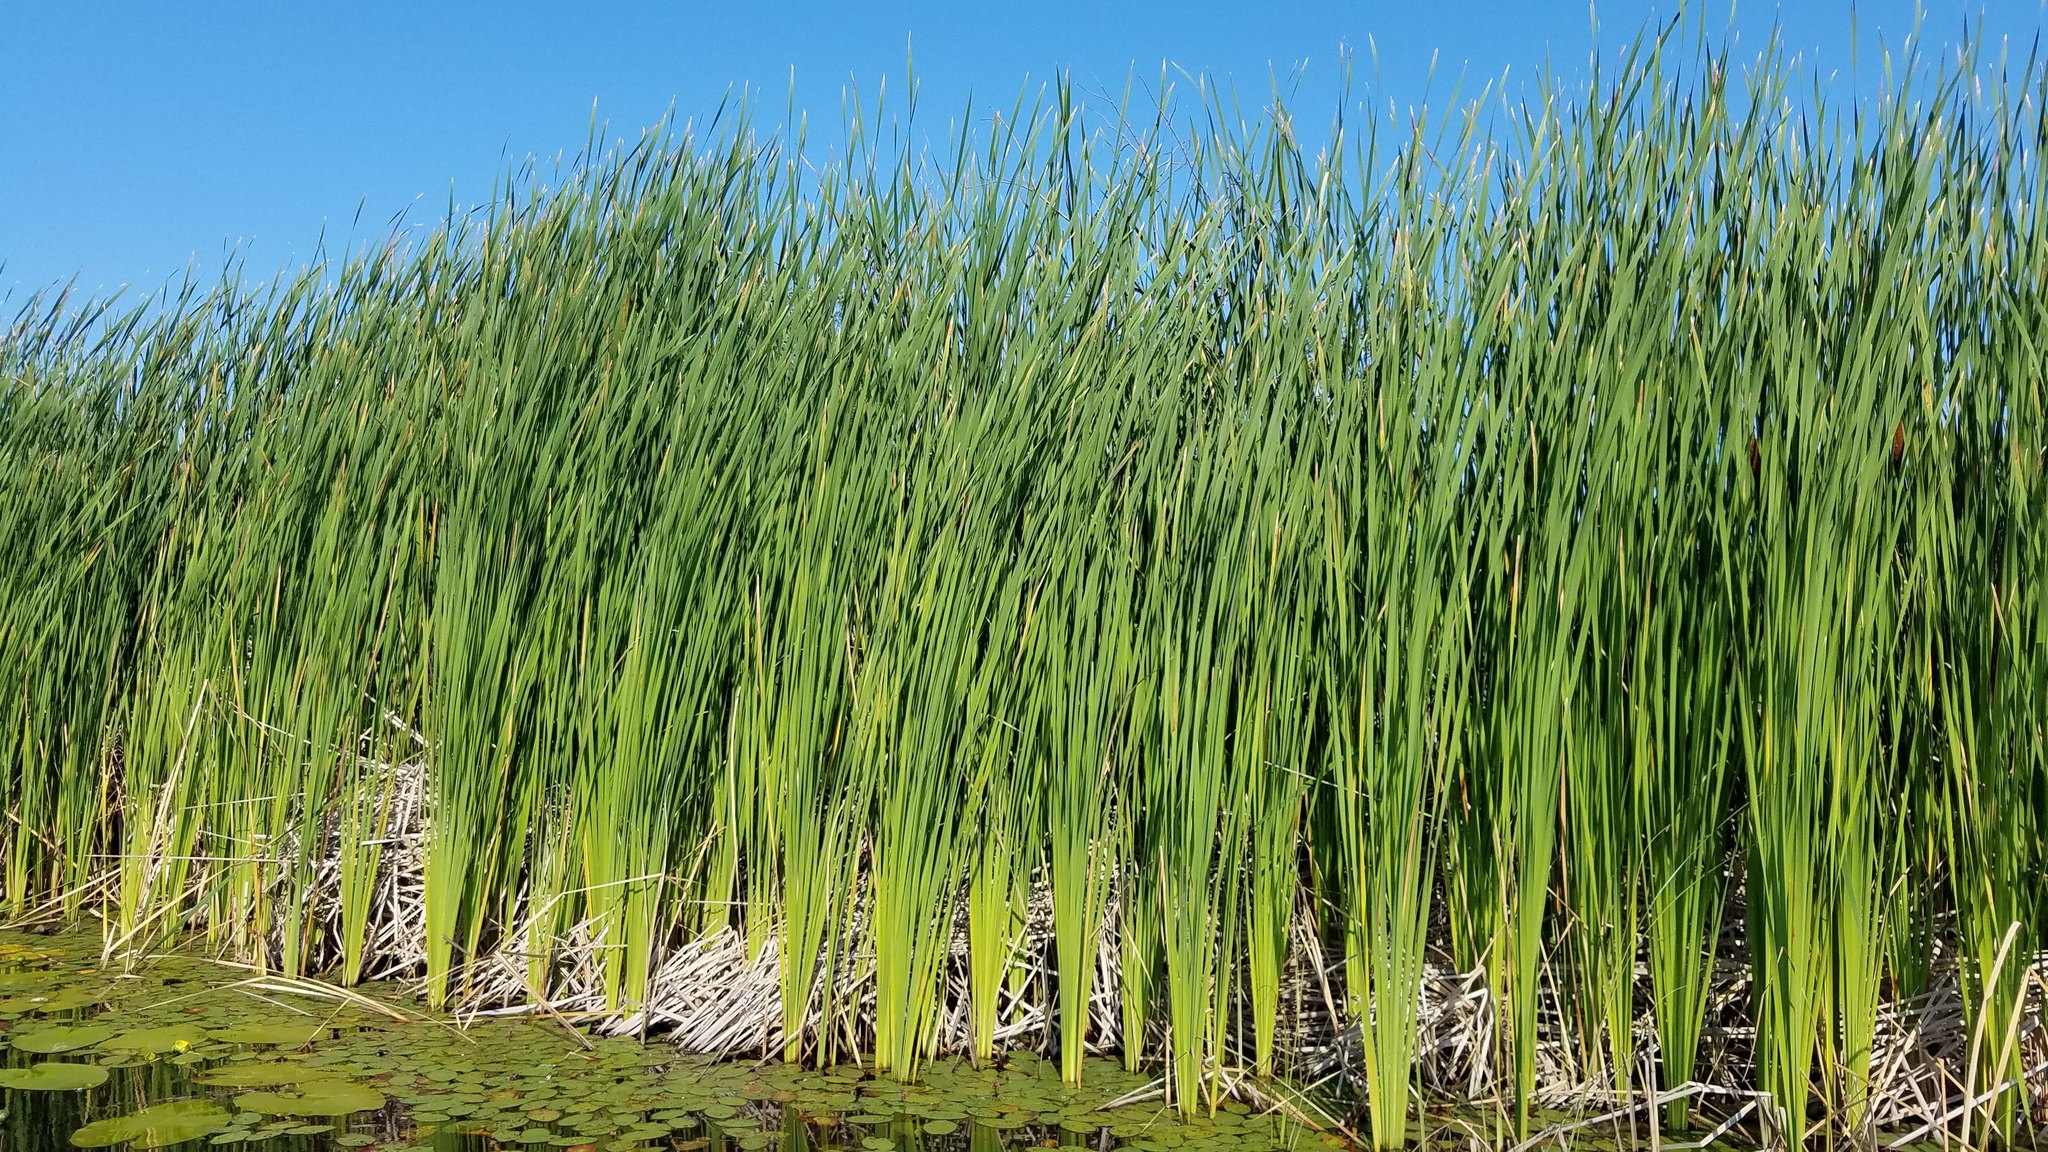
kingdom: Plantae
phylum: Tracheophyta
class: Liliopsida
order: Poales
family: Typhaceae
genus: Typha
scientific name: Typha glauca
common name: Blue cattail
